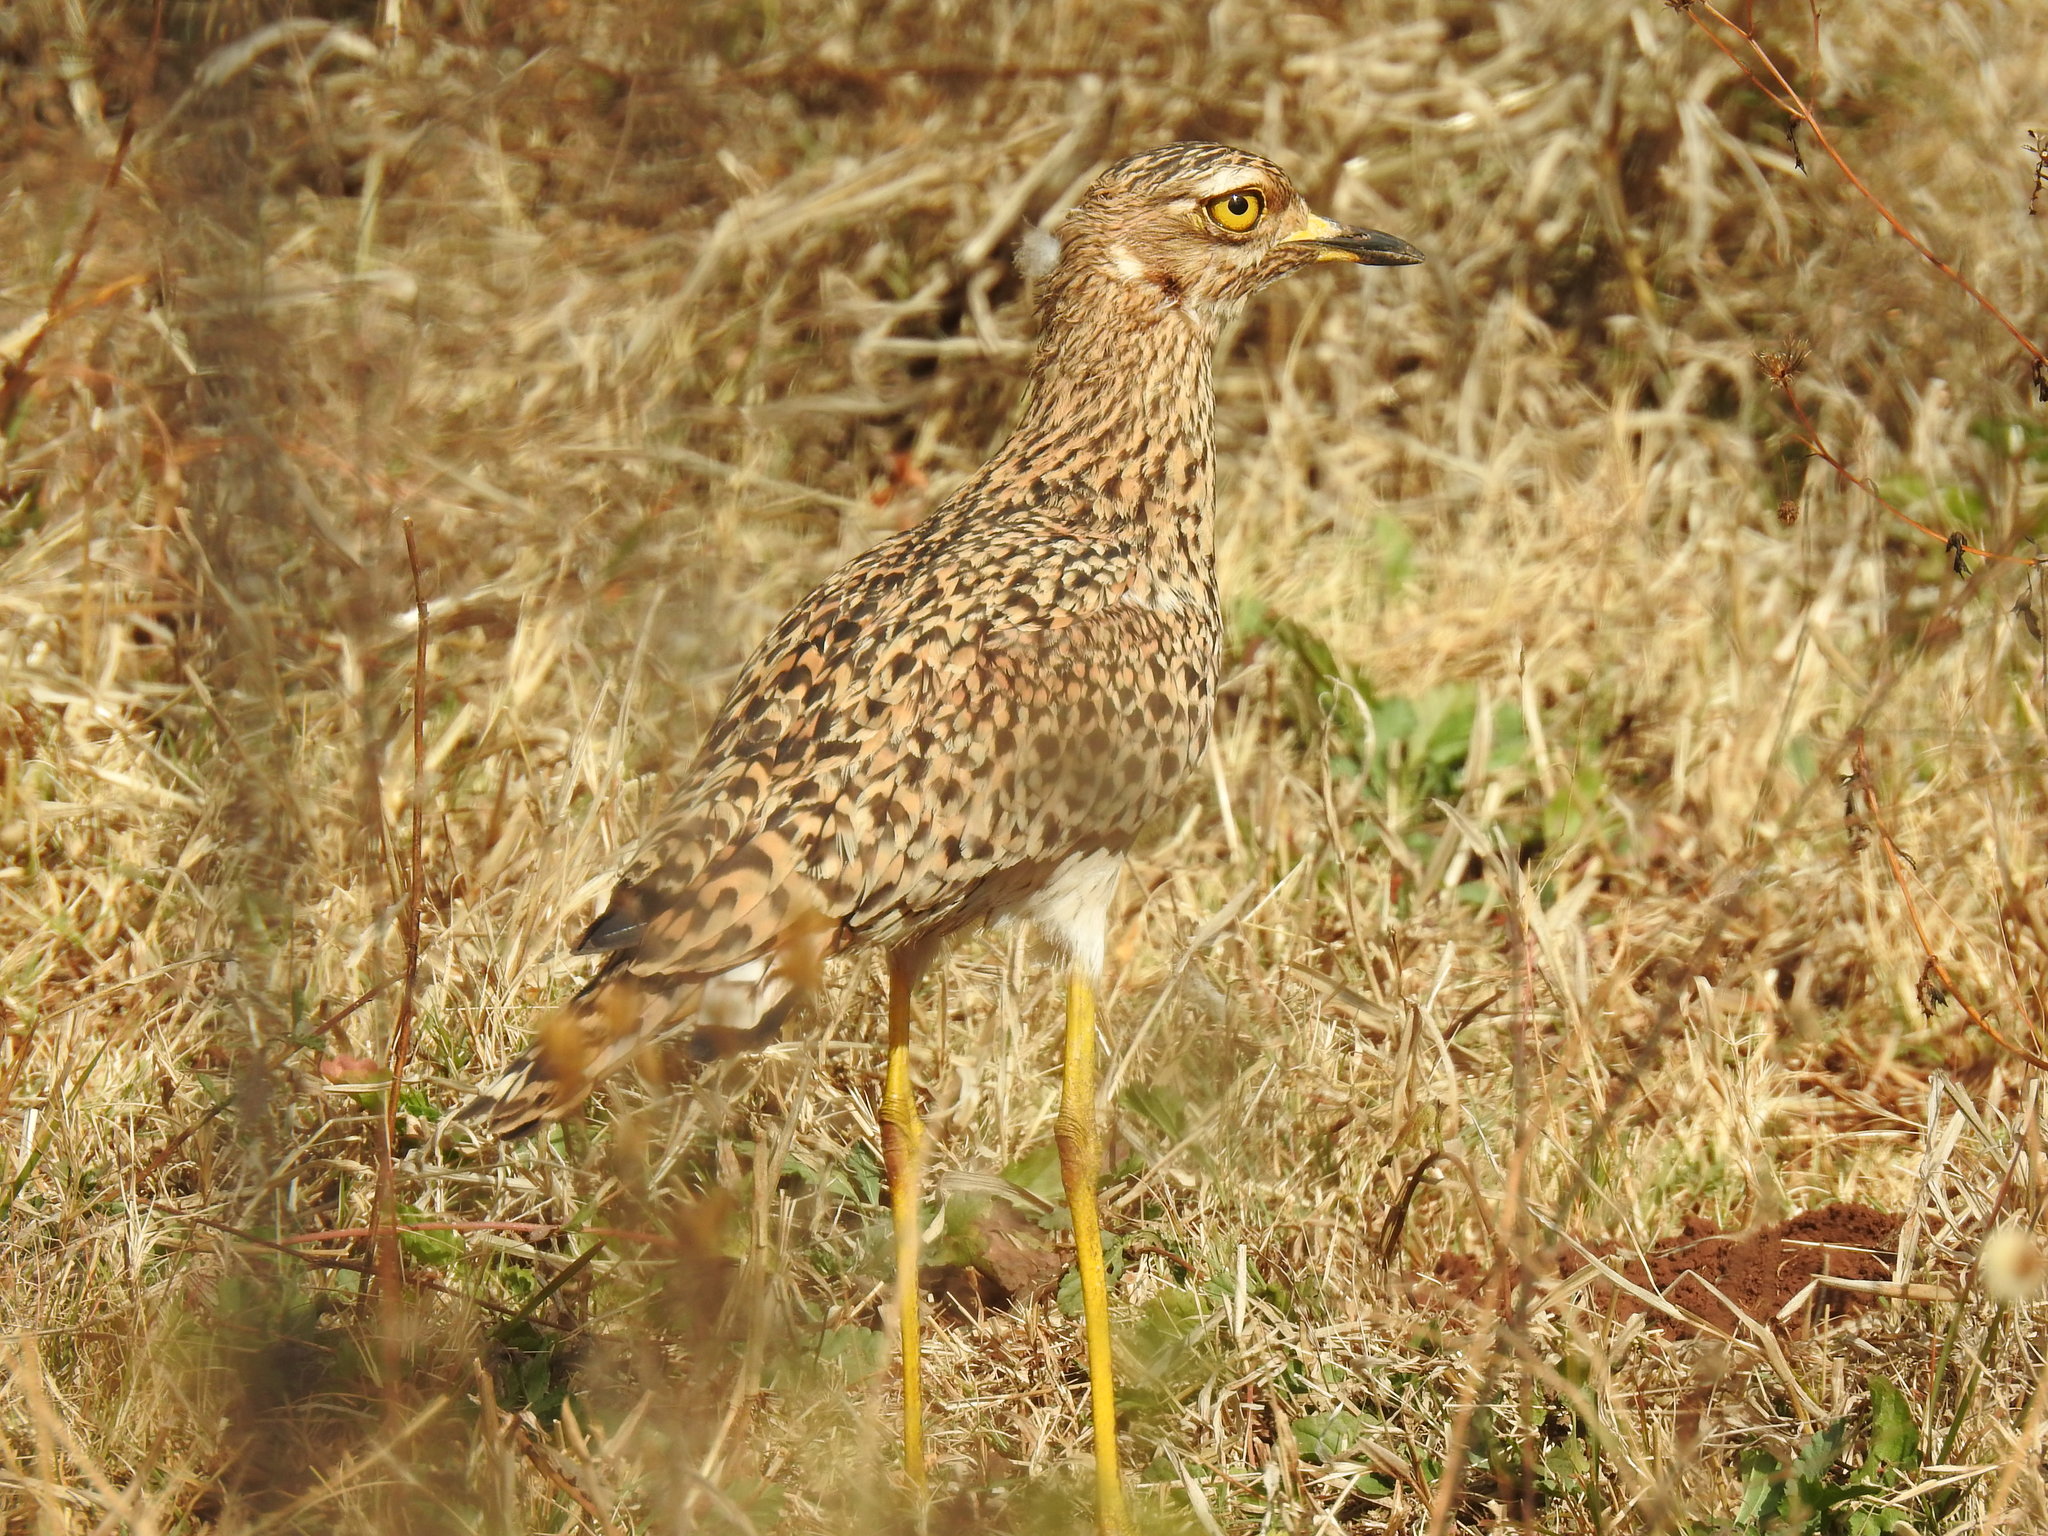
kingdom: Animalia
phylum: Chordata
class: Aves
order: Charadriiformes
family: Burhinidae
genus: Burhinus
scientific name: Burhinus capensis
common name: Spotted thick-knee
